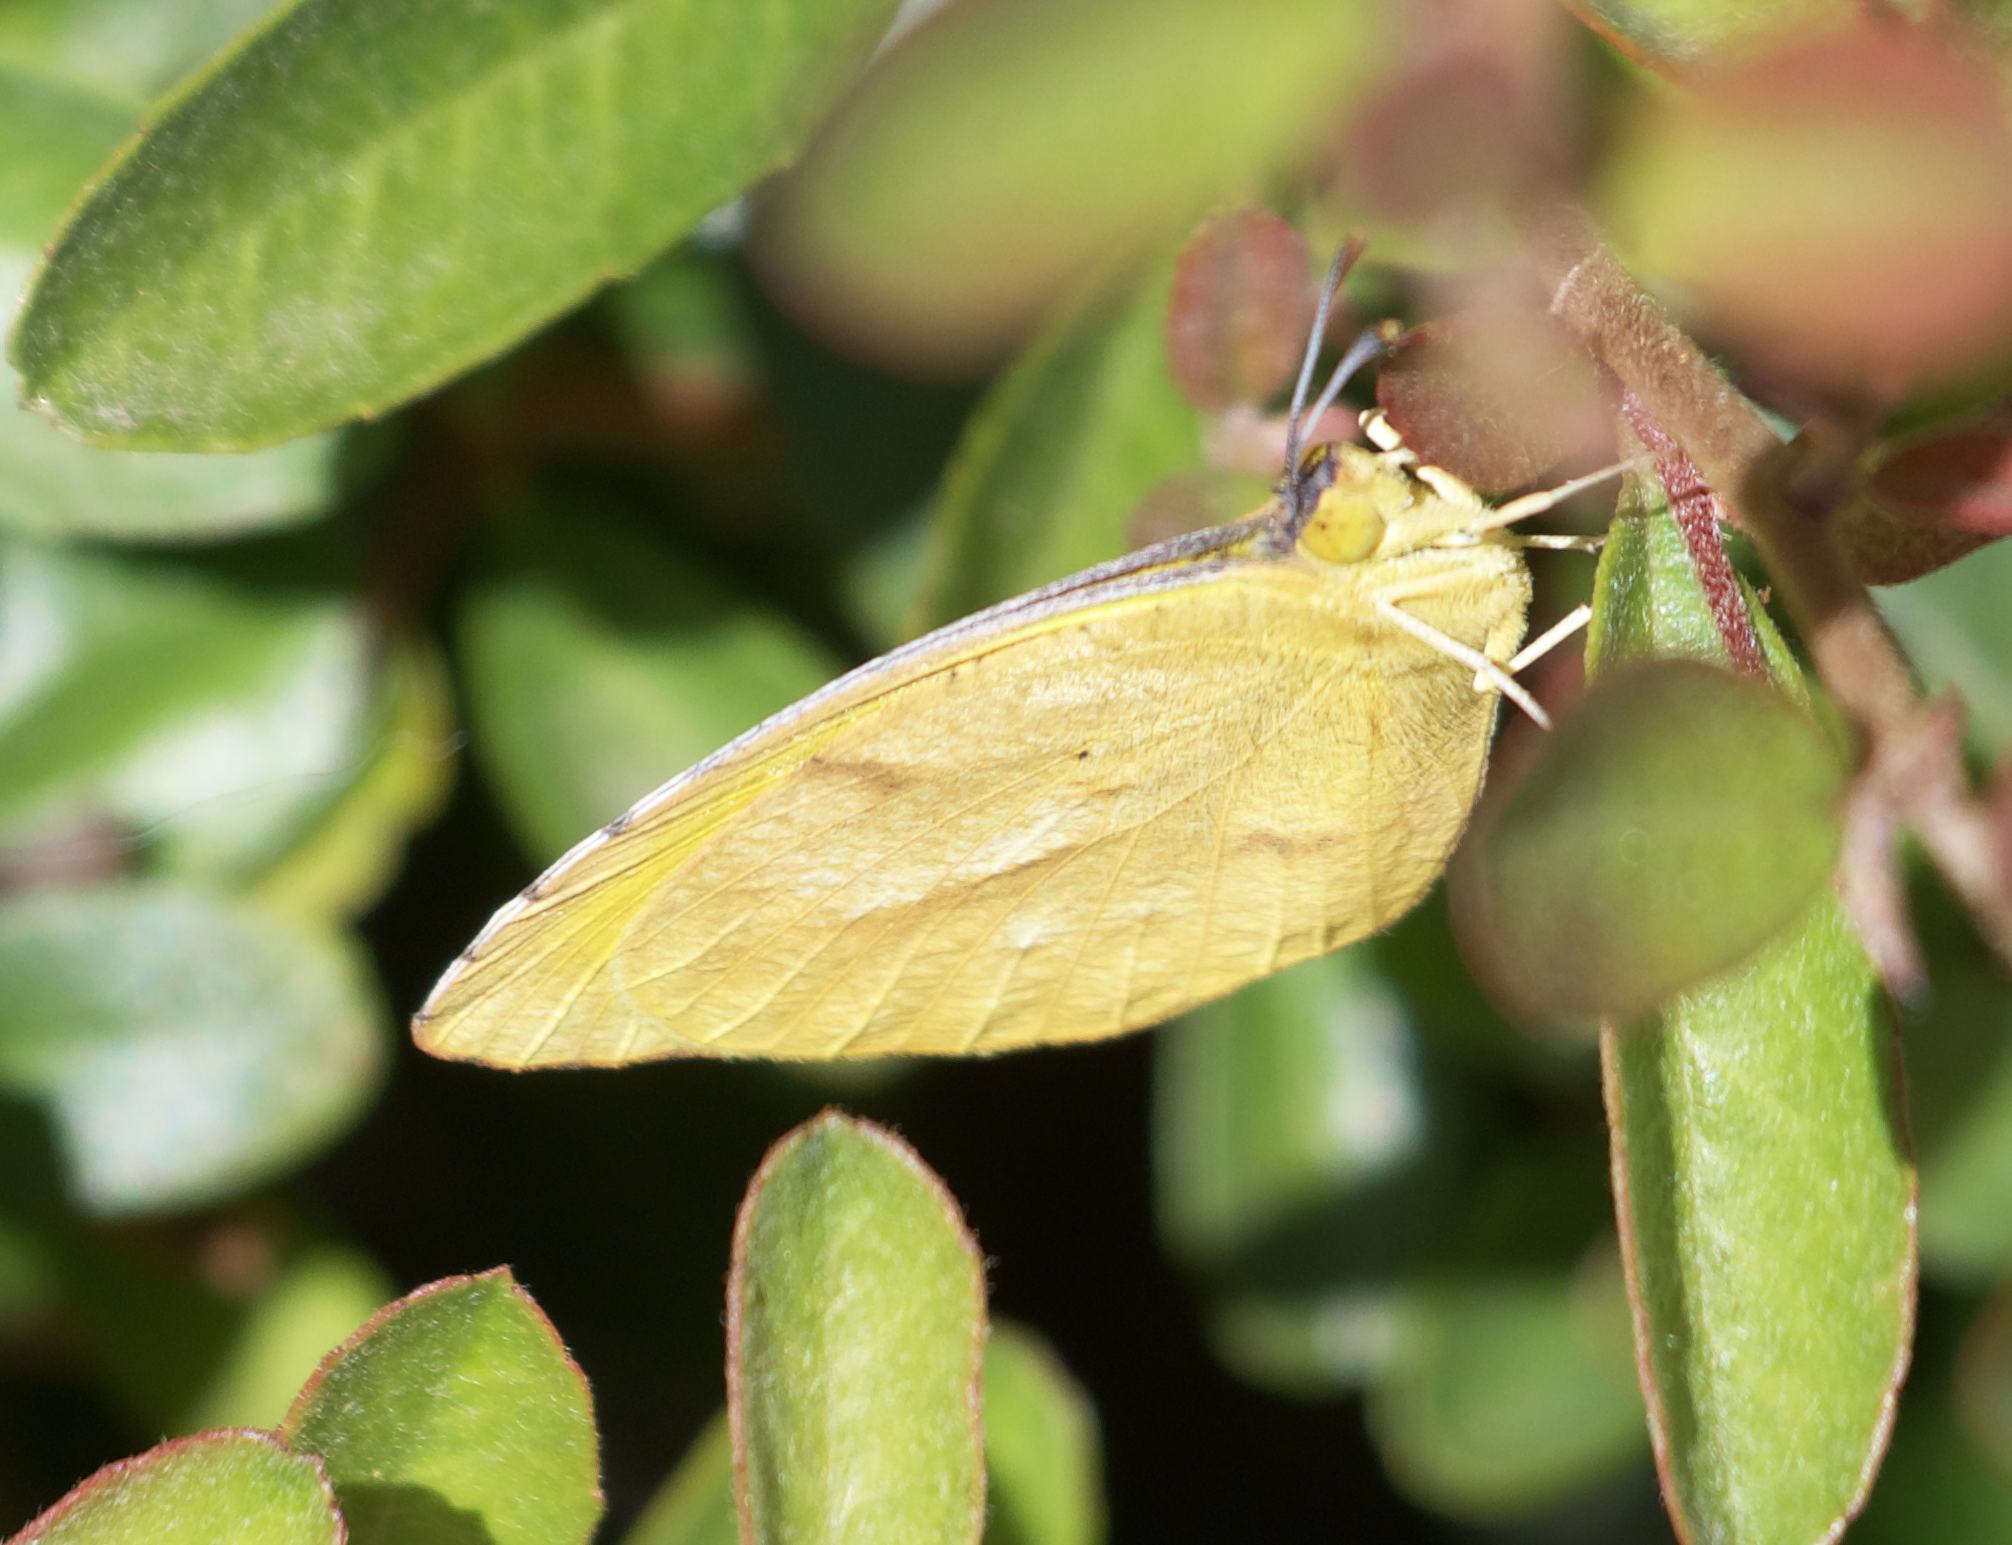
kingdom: Animalia
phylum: Arthropoda
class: Insecta
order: Lepidoptera
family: Pieridae
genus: Abaeis
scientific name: Abaeis nicippe
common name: Sleepy orange
